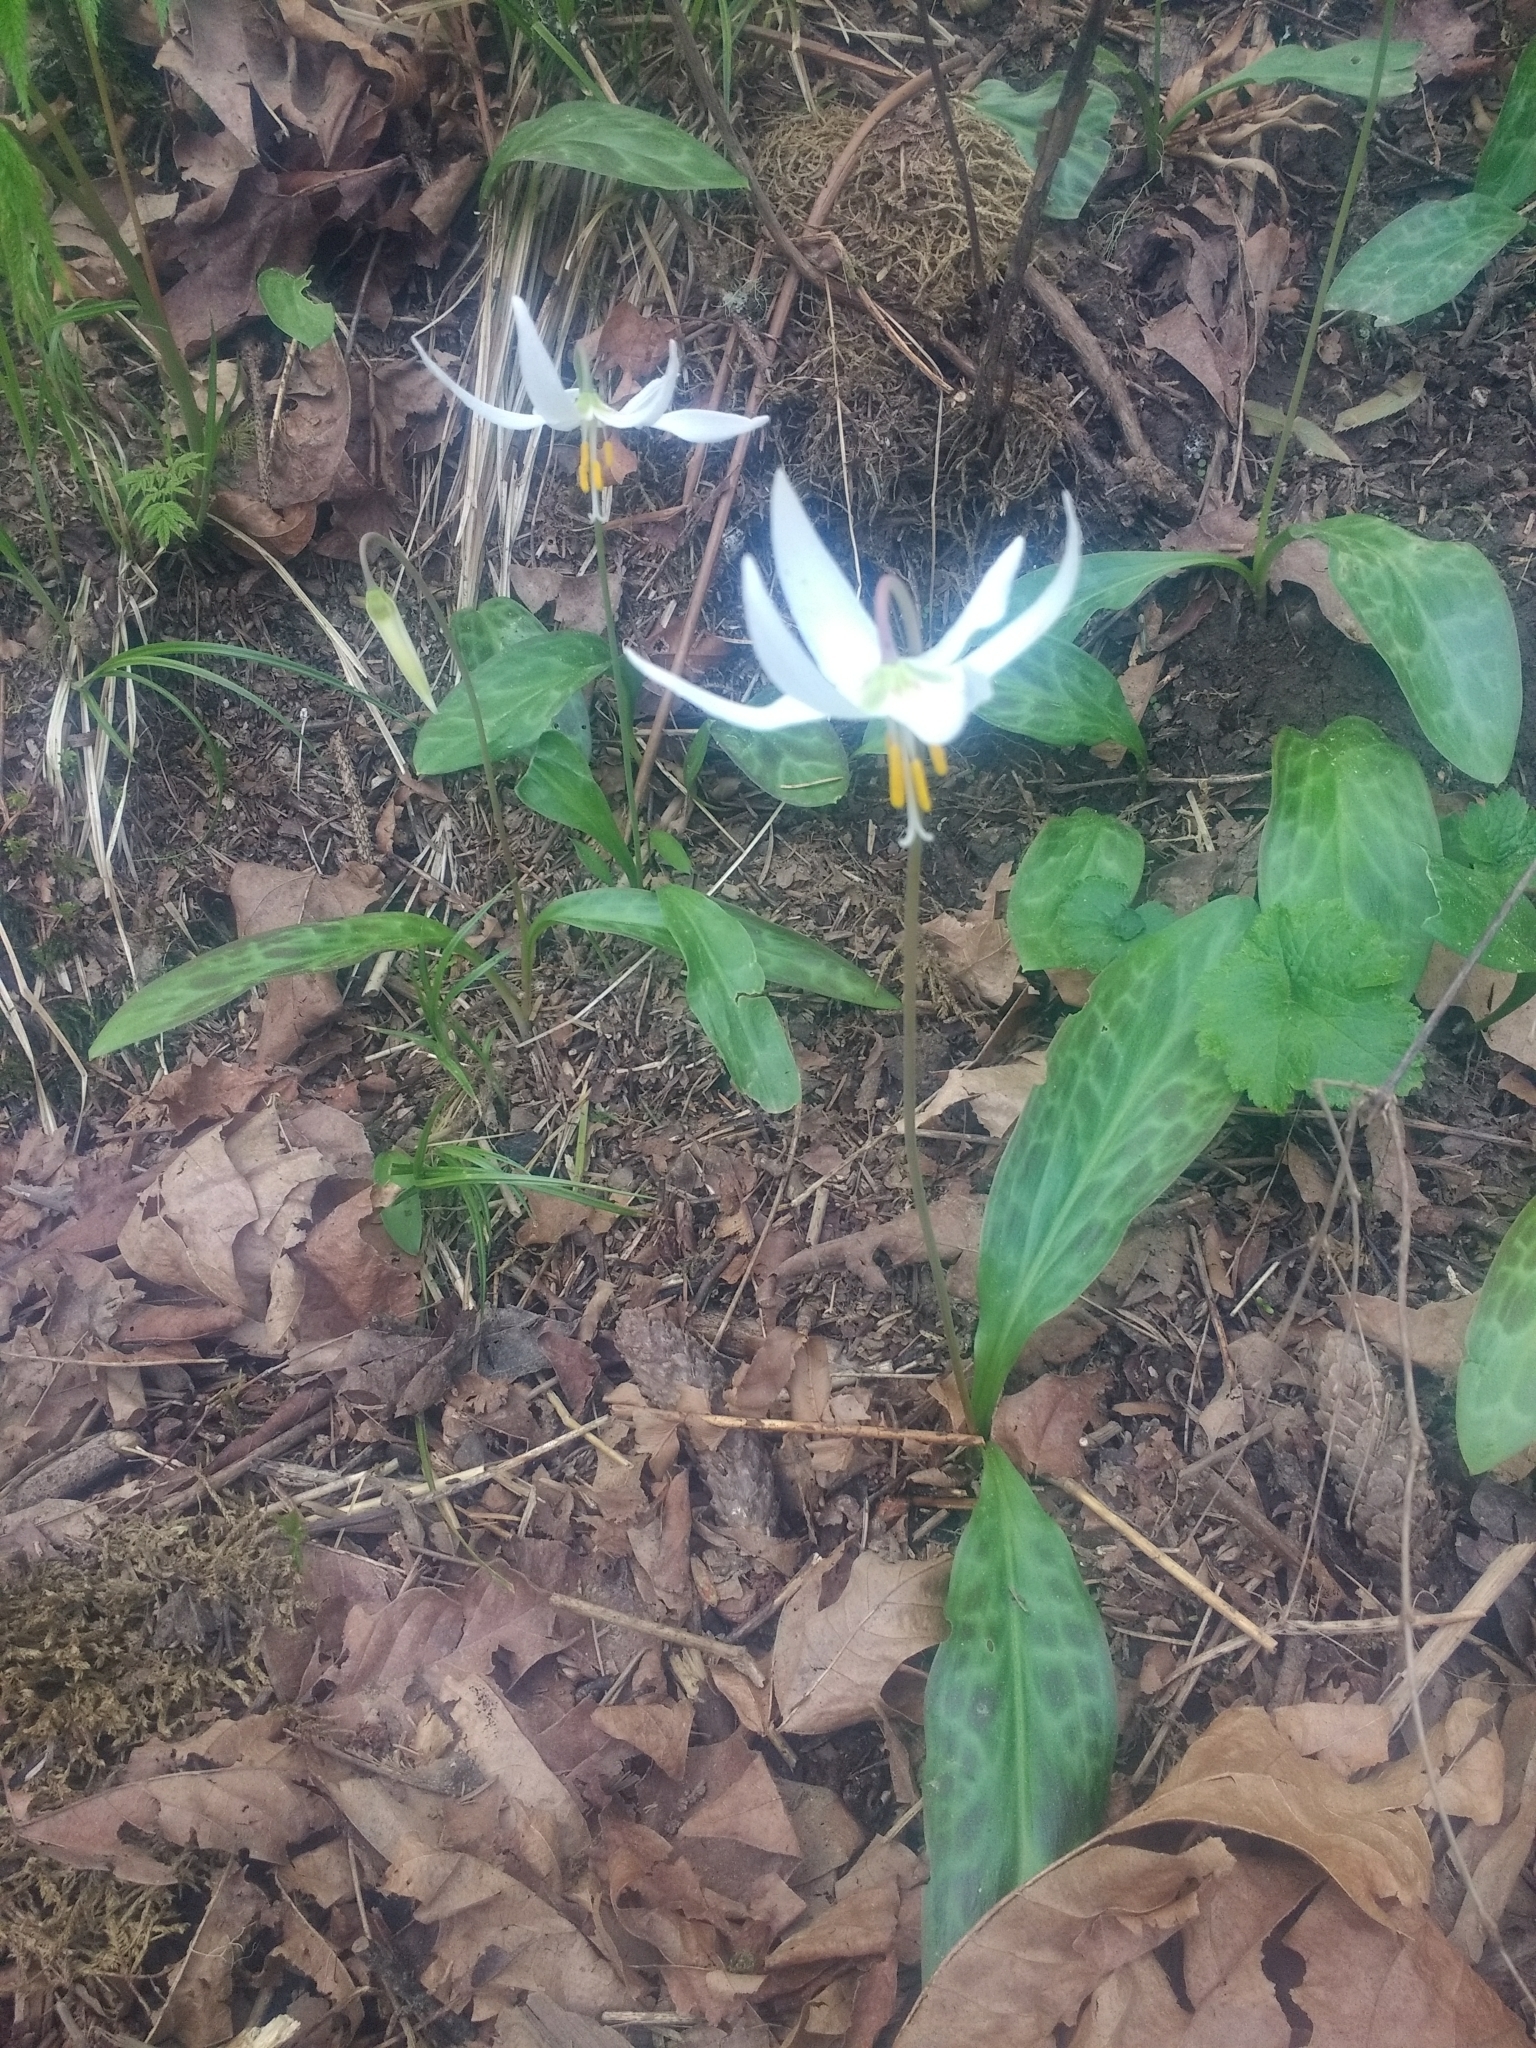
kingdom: Plantae
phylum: Tracheophyta
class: Liliopsida
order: Liliales
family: Liliaceae
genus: Erythronium
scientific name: Erythronium oregonum
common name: Giant adder's-tongue
